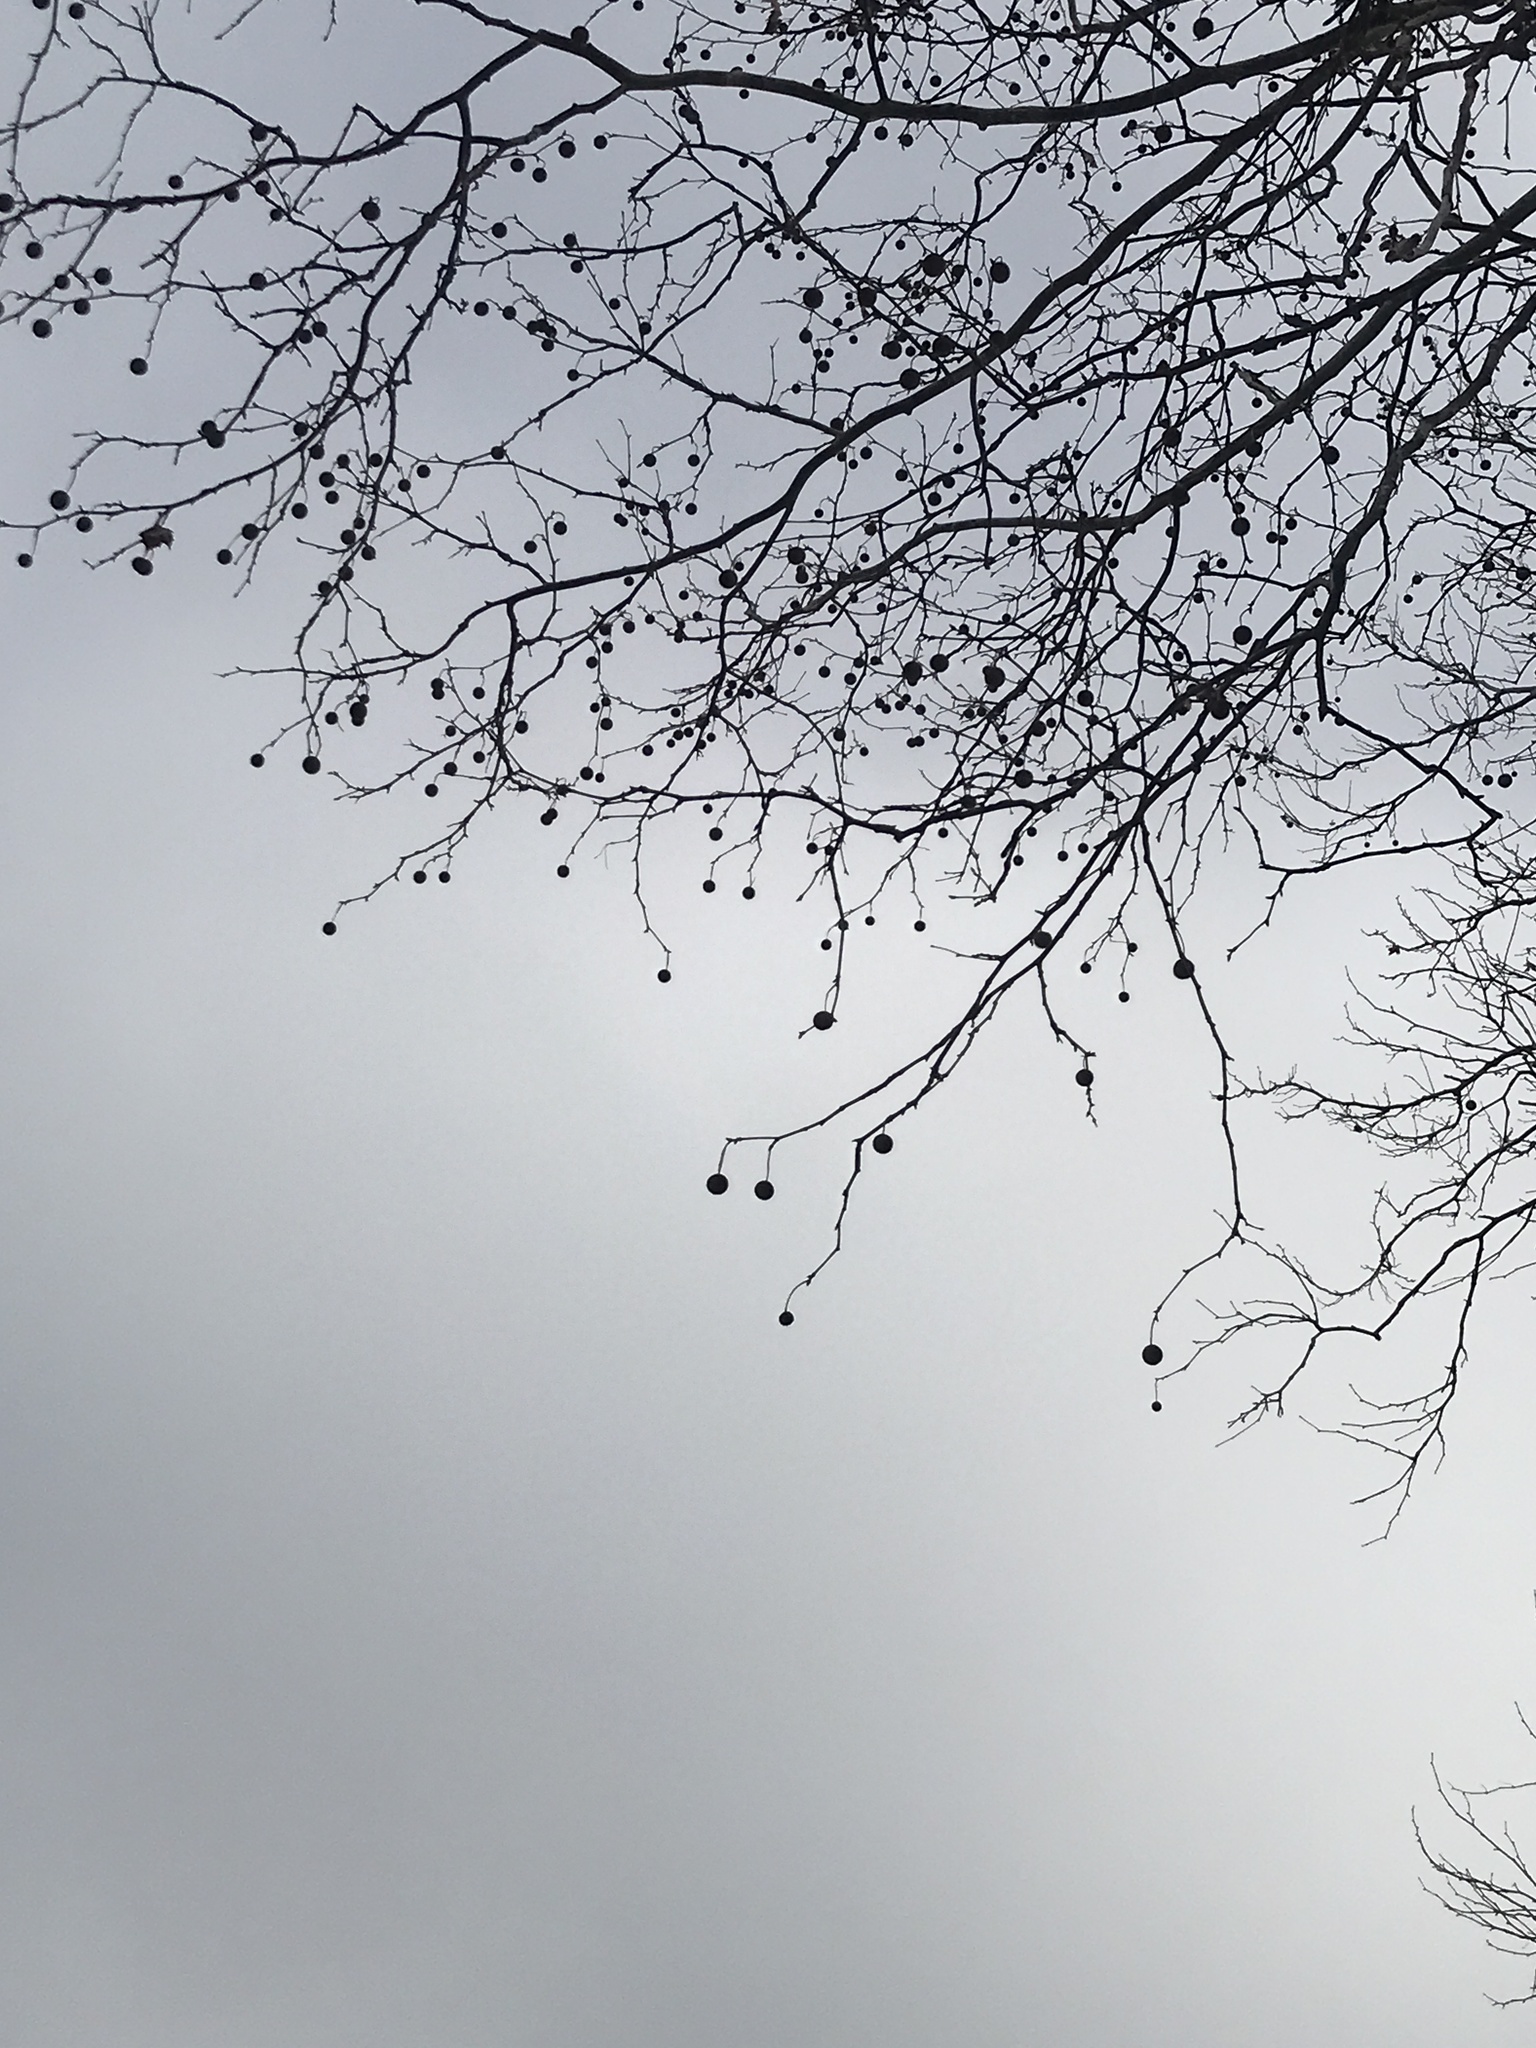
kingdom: Plantae
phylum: Tracheophyta
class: Magnoliopsida
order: Proteales
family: Platanaceae
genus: Platanus
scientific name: Platanus occidentalis
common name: American sycamore
